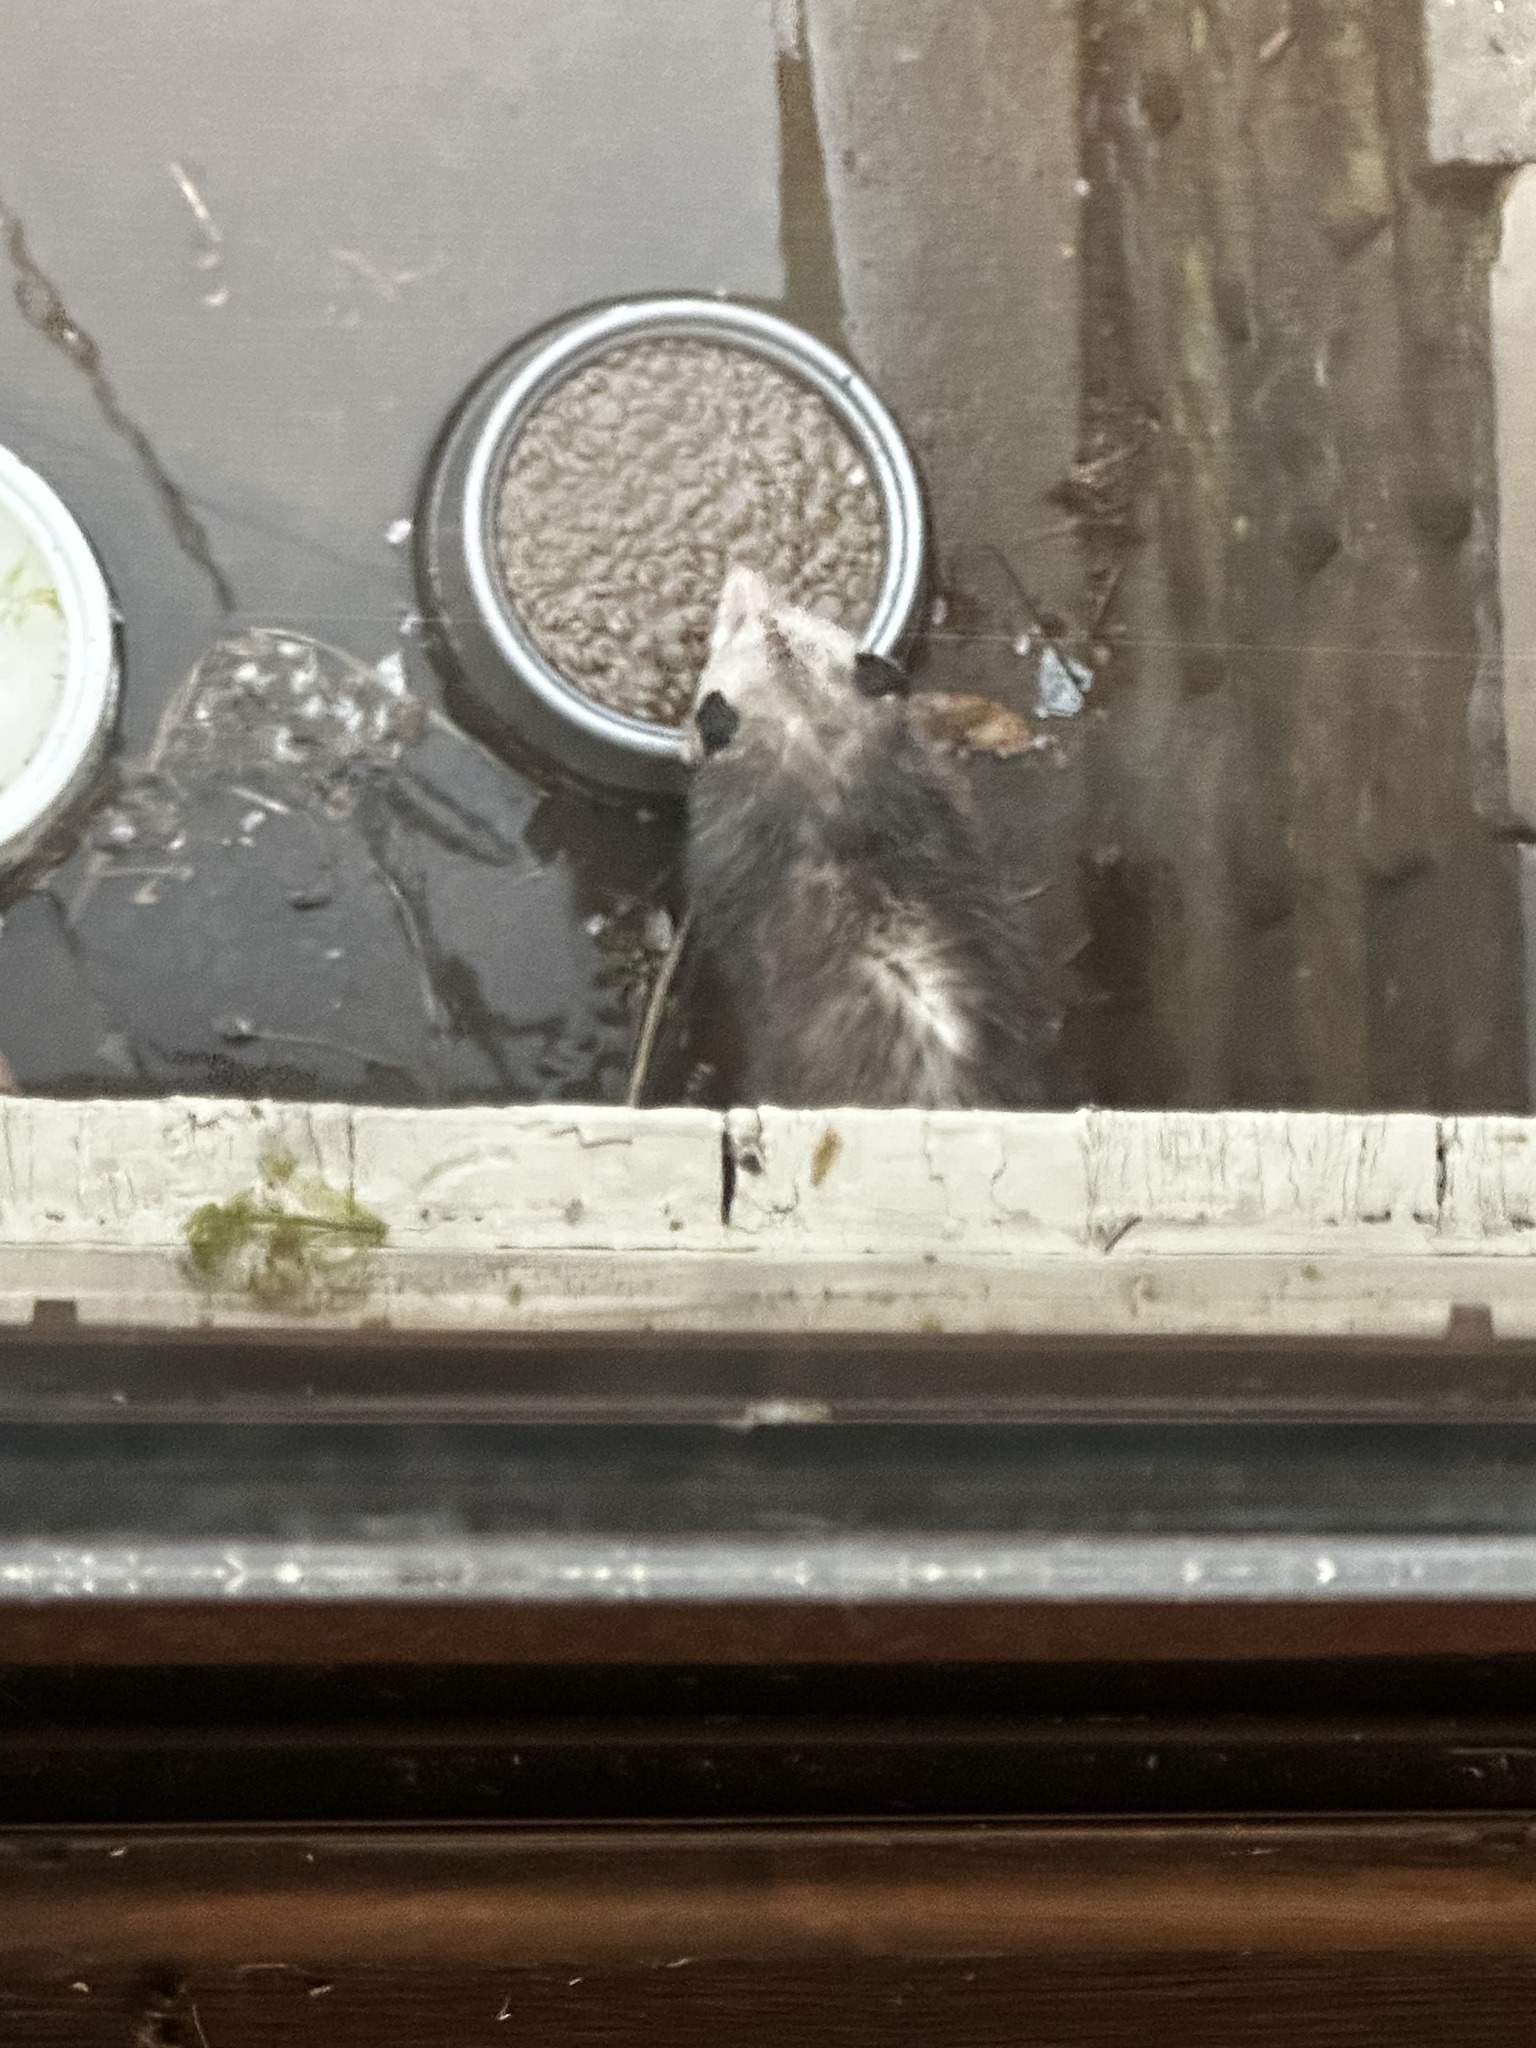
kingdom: Animalia
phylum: Chordata
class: Mammalia
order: Didelphimorphia
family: Didelphidae
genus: Didelphis
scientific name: Didelphis virginiana
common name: Virginia opossum
